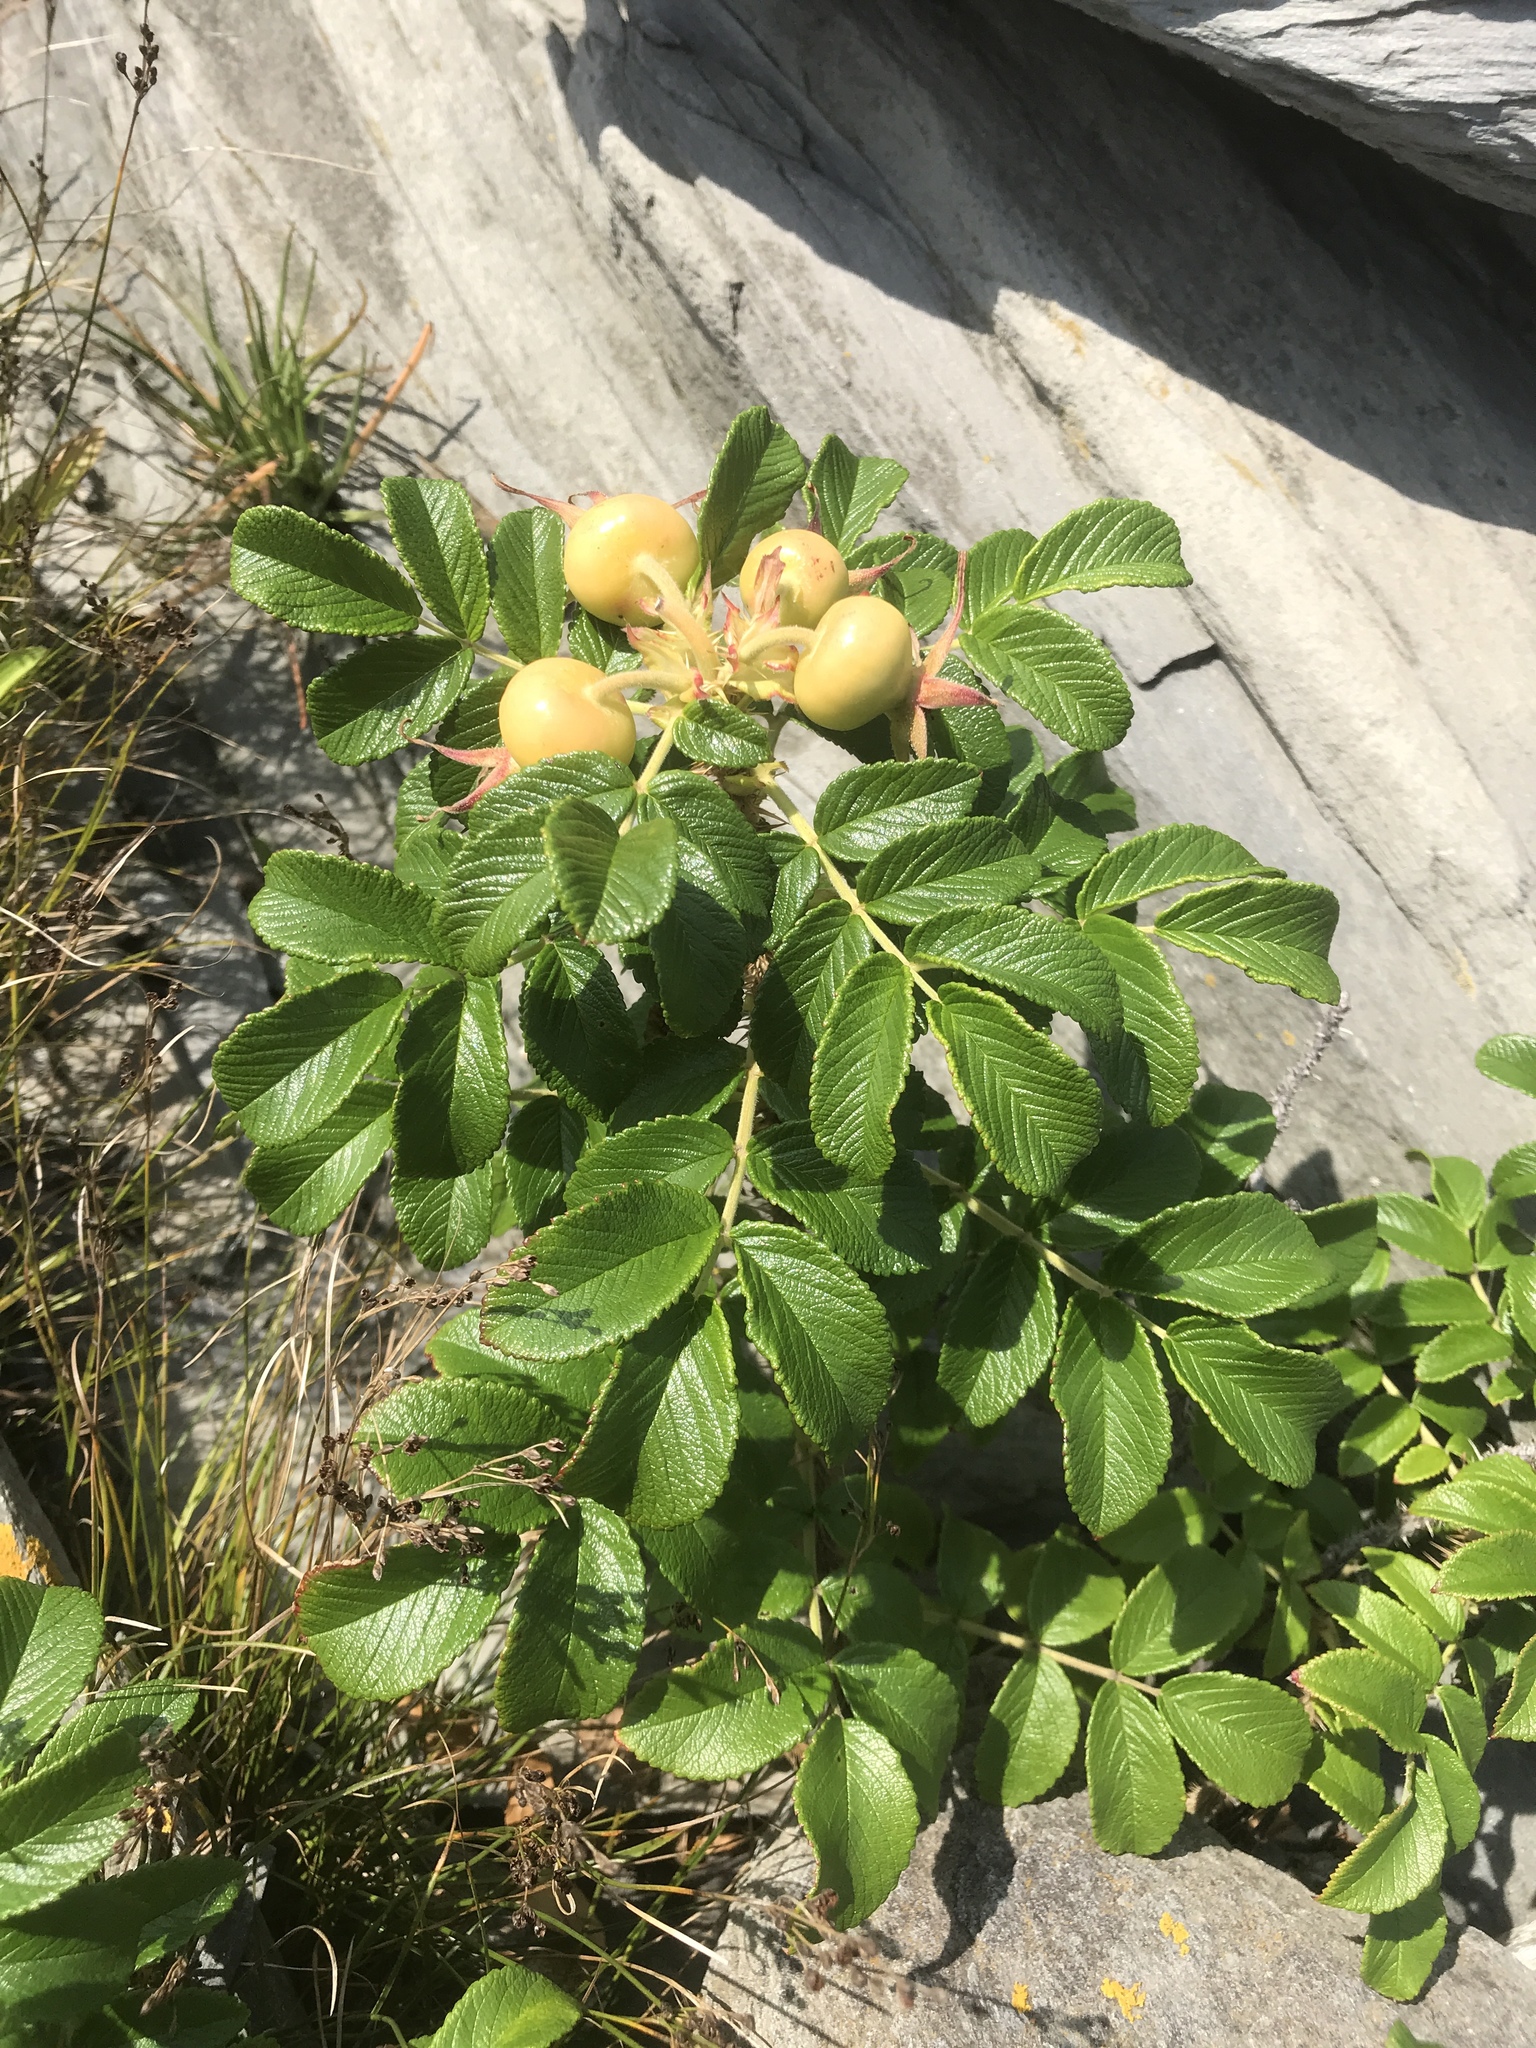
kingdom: Plantae
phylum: Tracheophyta
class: Magnoliopsida
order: Rosales
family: Rosaceae
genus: Rosa
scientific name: Rosa rugosa
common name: Japanese rose
